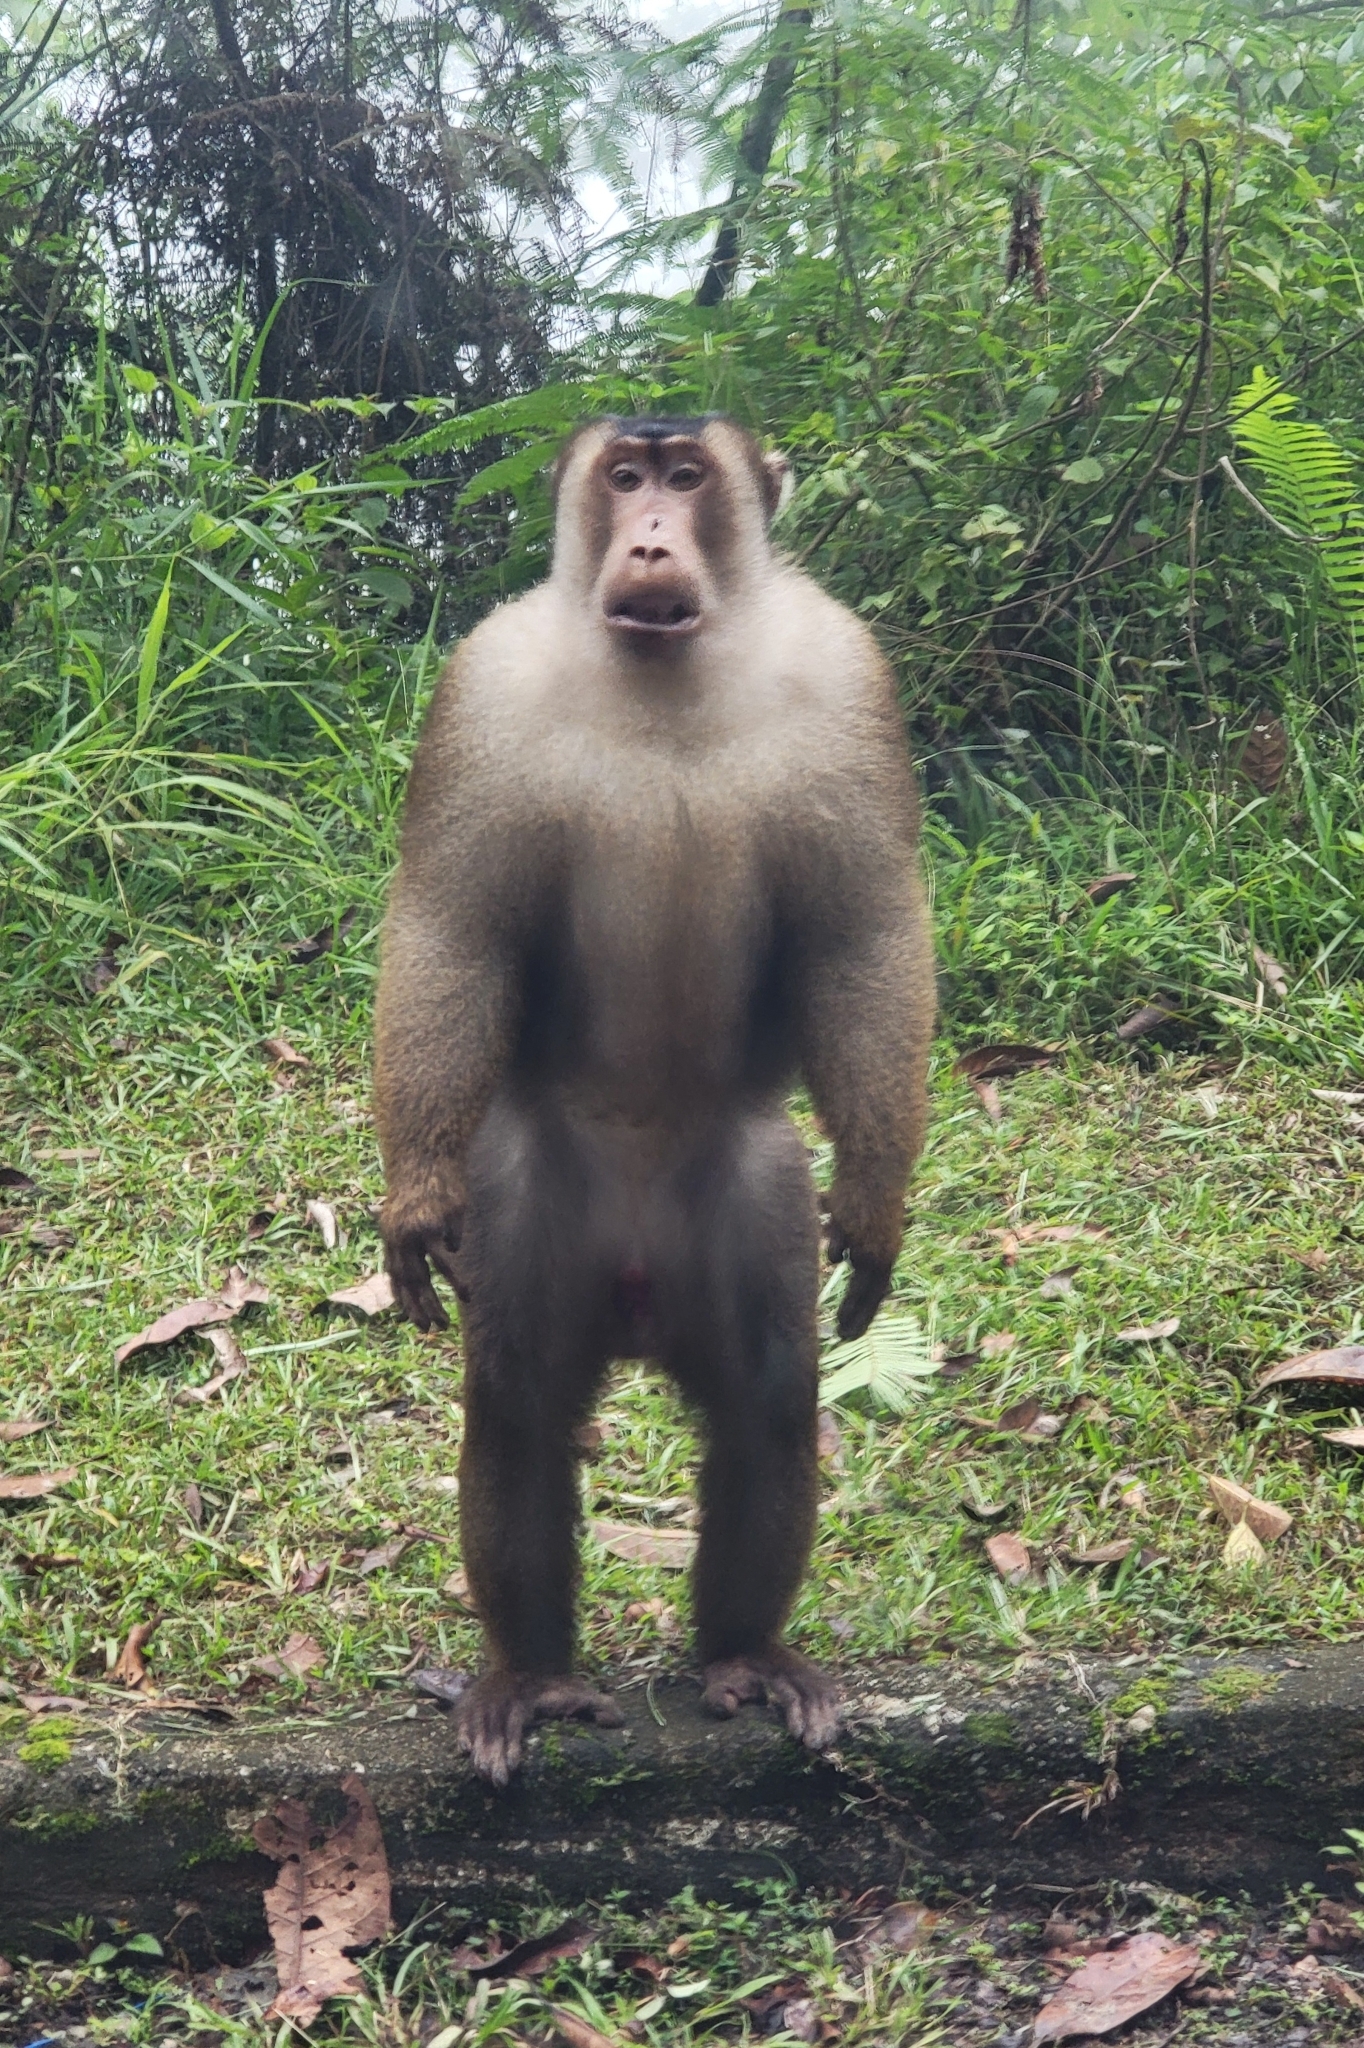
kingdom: Animalia
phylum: Chordata
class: Mammalia
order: Primates
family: Cercopithecidae
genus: Macaca
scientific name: Macaca nemestrina
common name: Southern pig-tailed macaque
